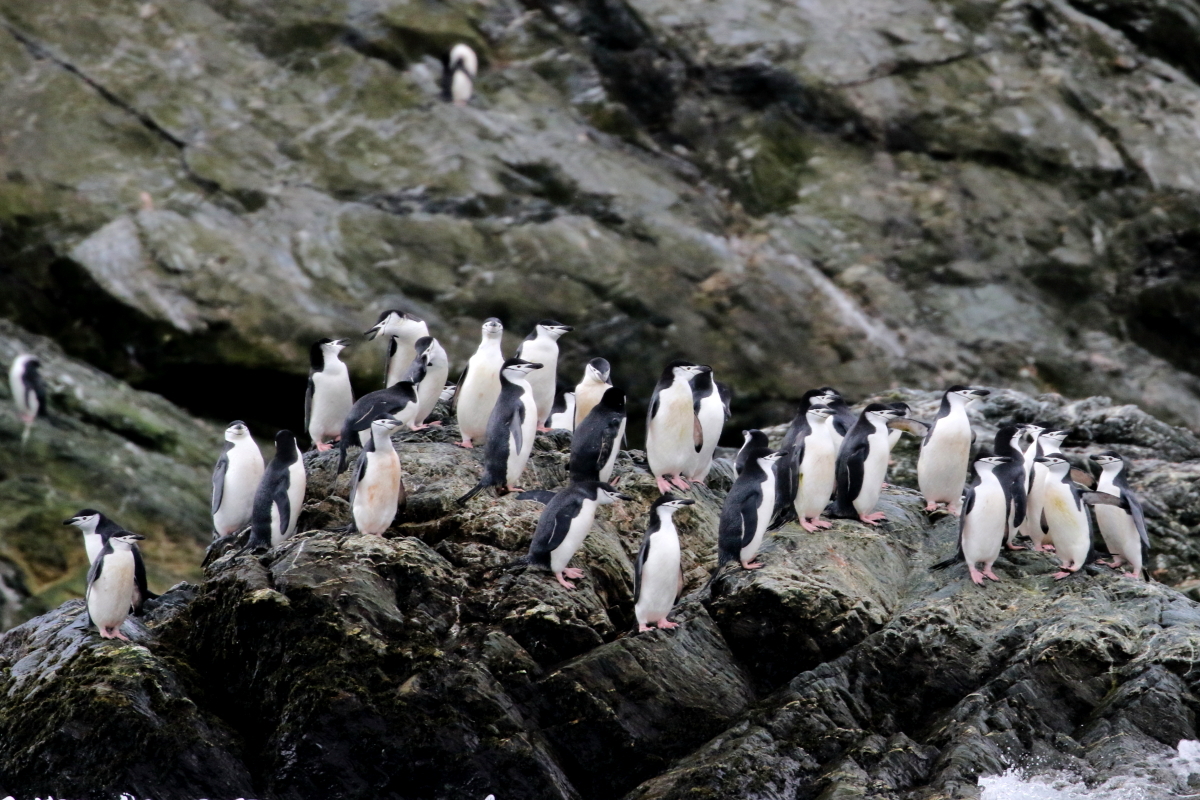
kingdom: Animalia
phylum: Chordata
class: Aves
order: Sphenisciformes
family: Spheniscidae
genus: Pygoscelis
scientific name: Pygoscelis antarcticus
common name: Chinstrap penguin
